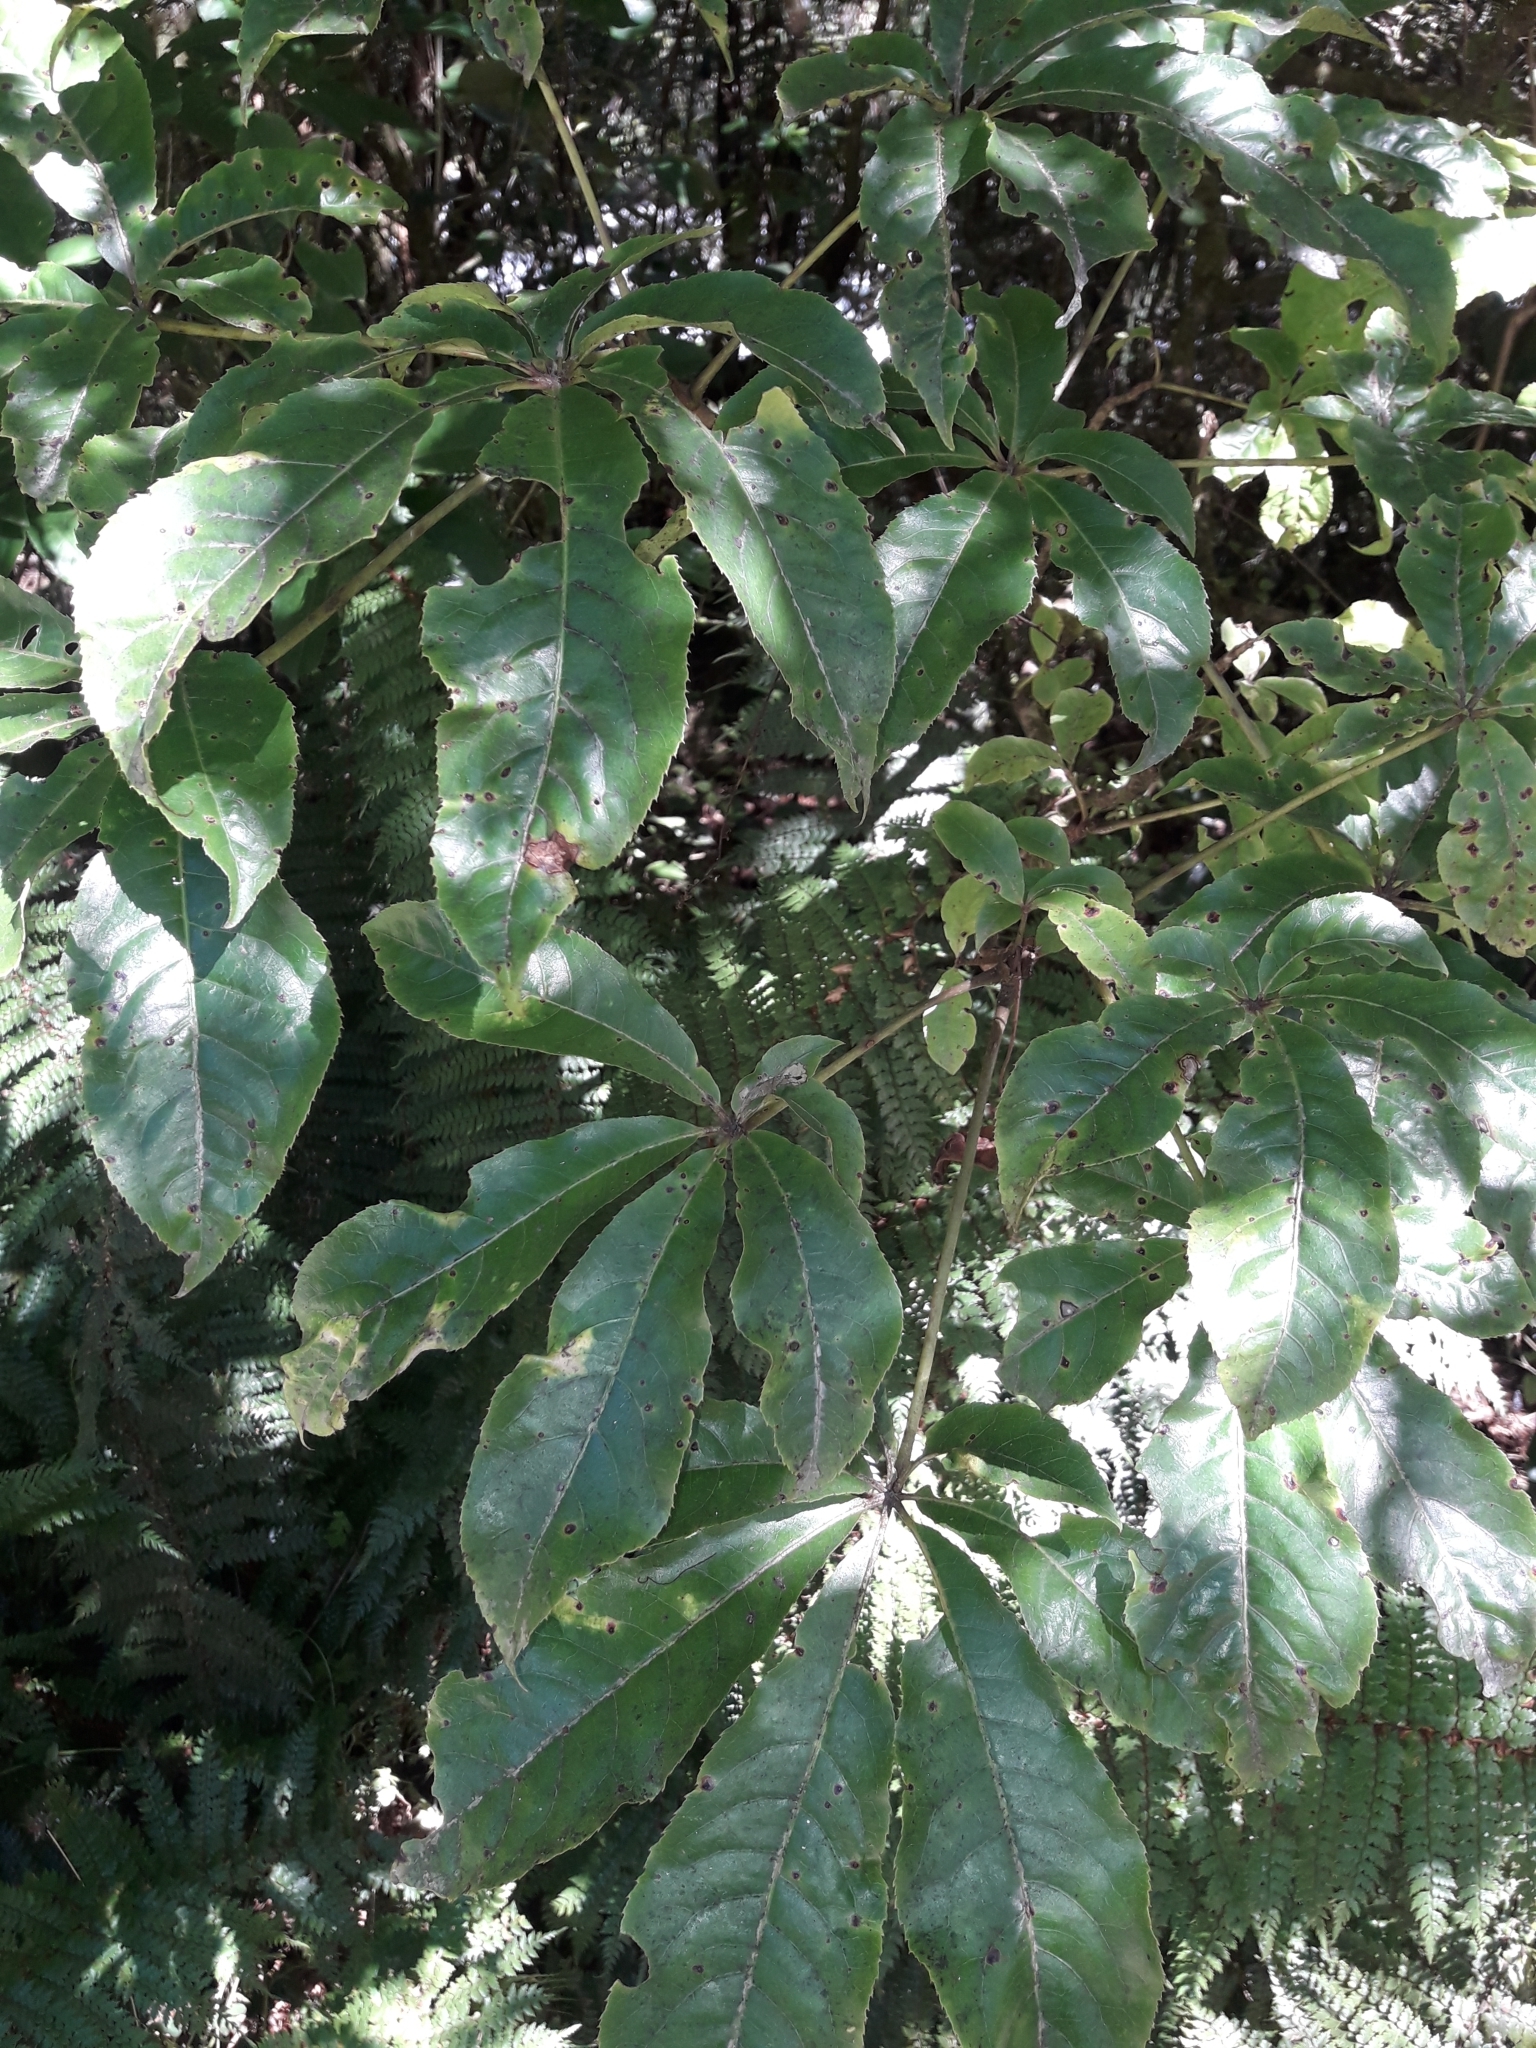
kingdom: Plantae
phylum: Tracheophyta
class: Magnoliopsida
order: Apiales
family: Araliaceae
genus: Schefflera
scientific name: Schefflera digitata
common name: Pate
